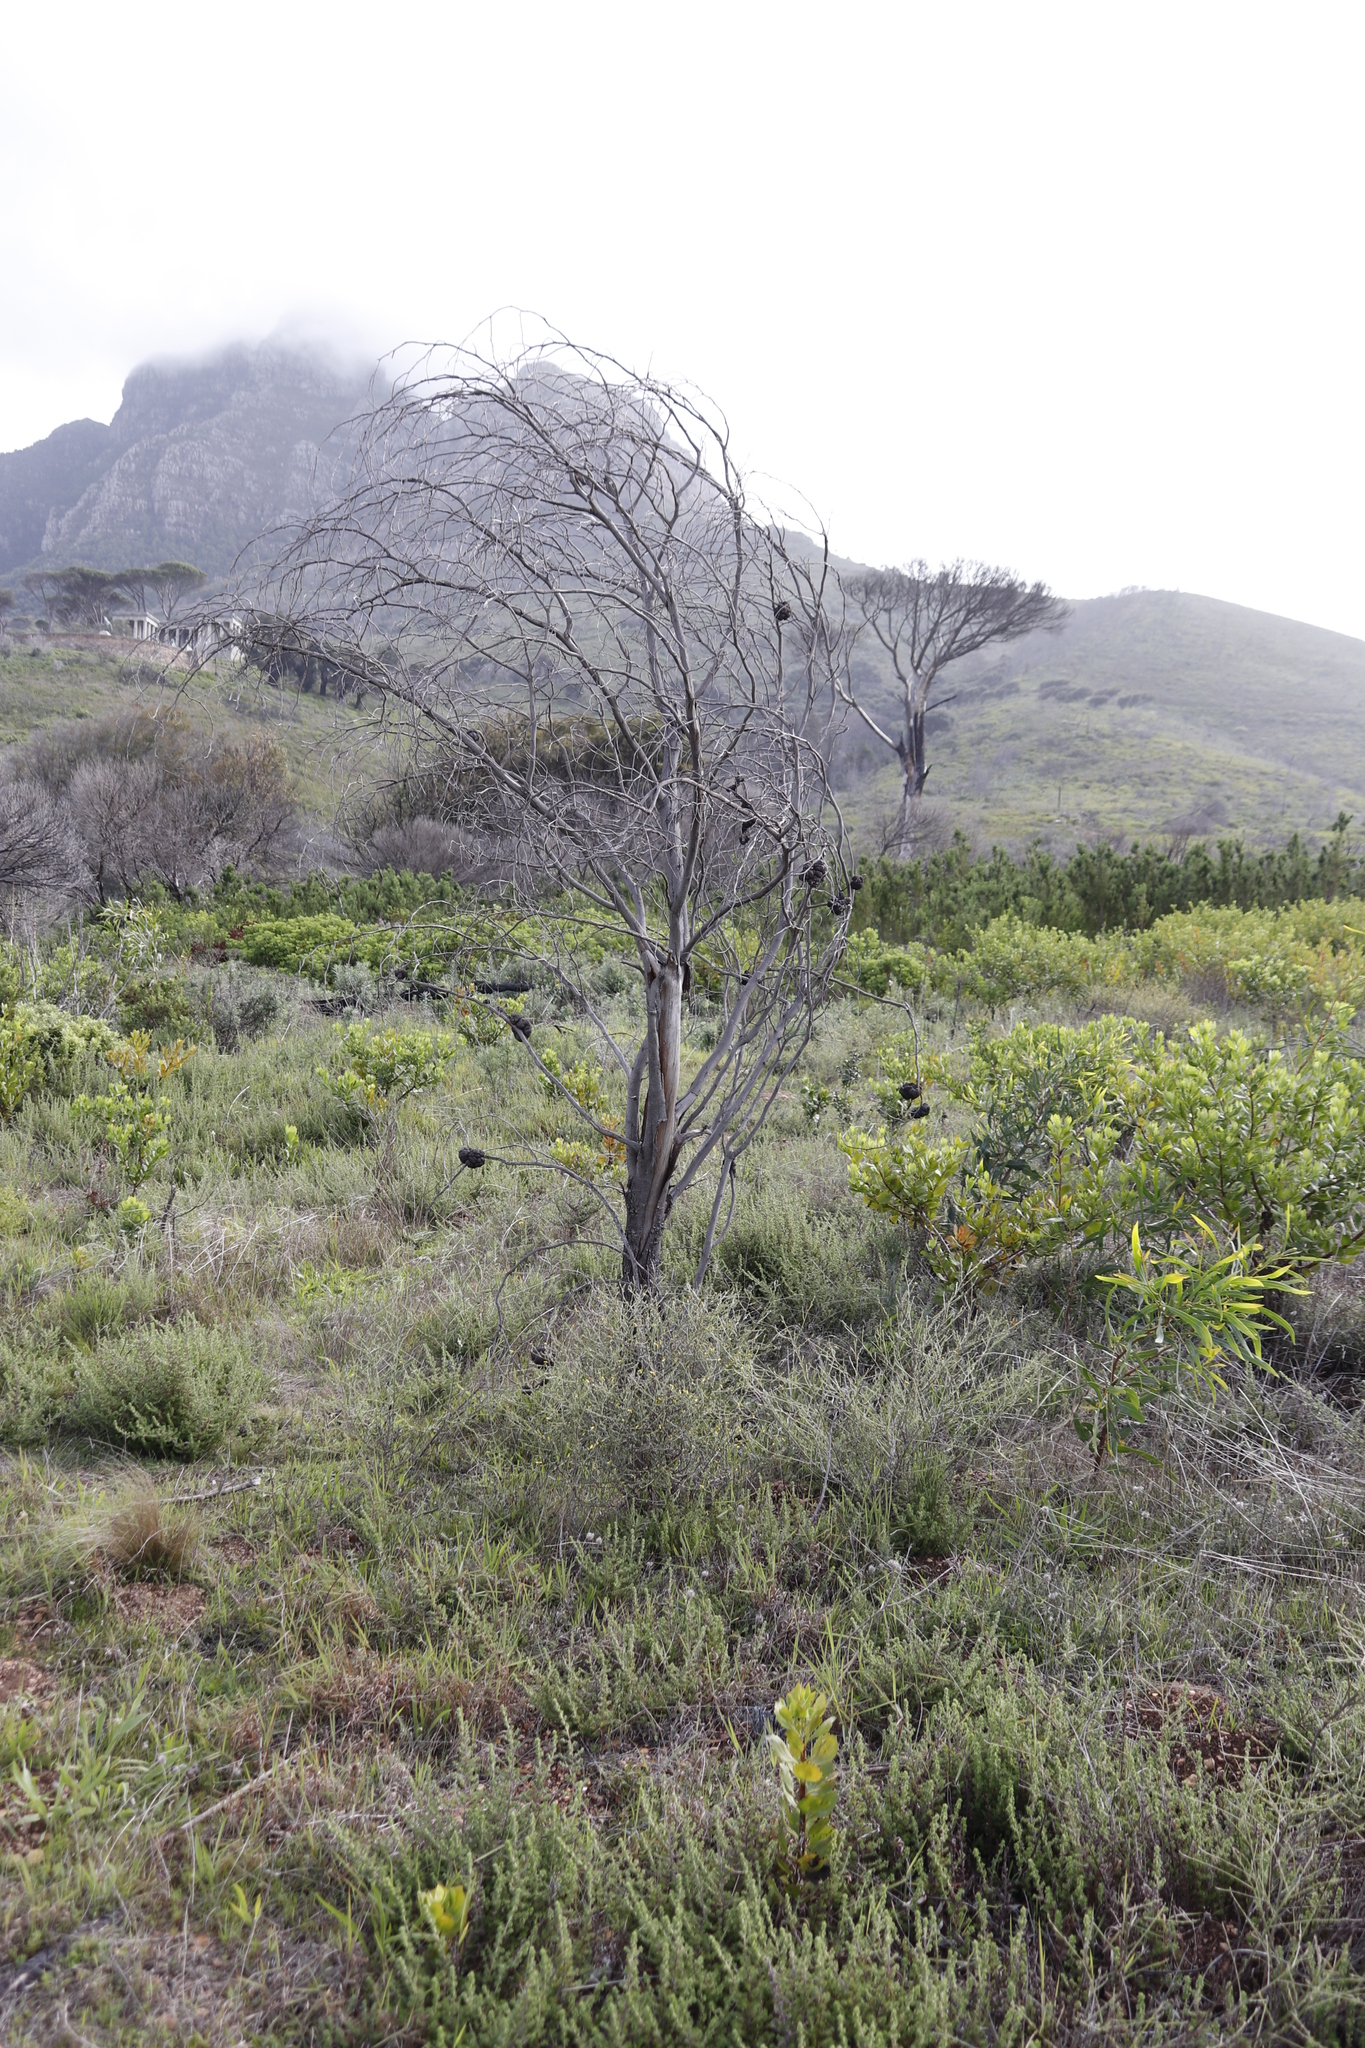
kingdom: Plantae
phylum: Tracheophyta
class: Magnoliopsida
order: Fabales
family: Fabaceae
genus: Acacia
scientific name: Acacia saligna
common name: Orange wattle
